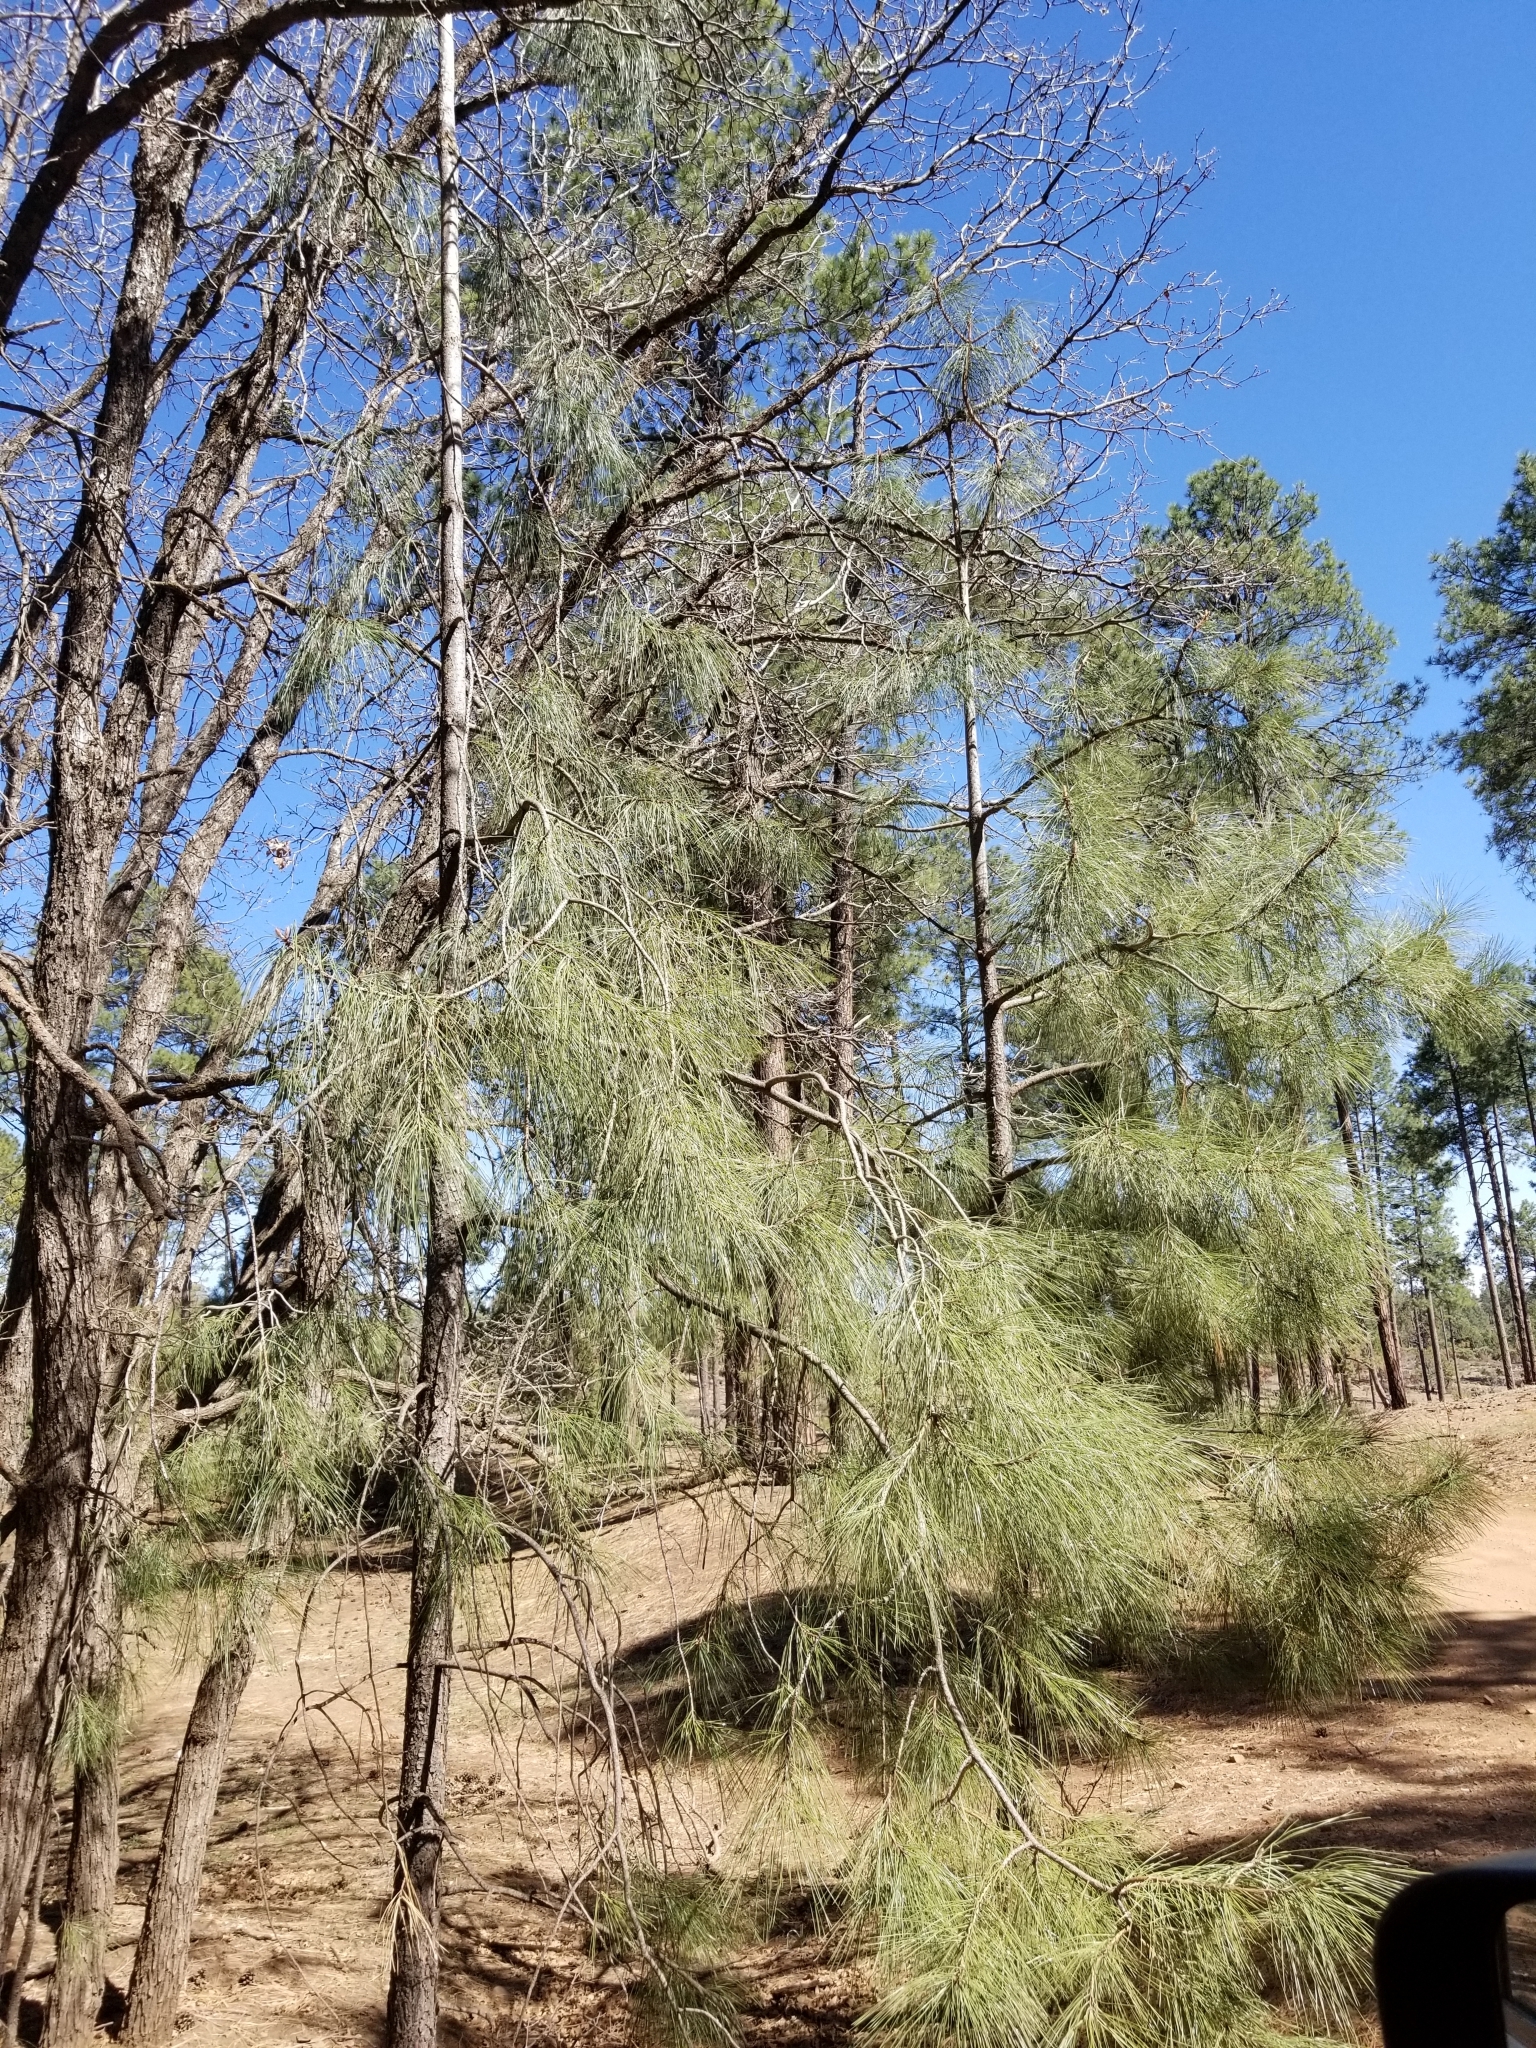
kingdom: Plantae
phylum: Tracheophyta
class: Pinopsida
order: Pinales
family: Pinaceae
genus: Pinus
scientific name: Pinus ponderosa
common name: Western yellow-pine
